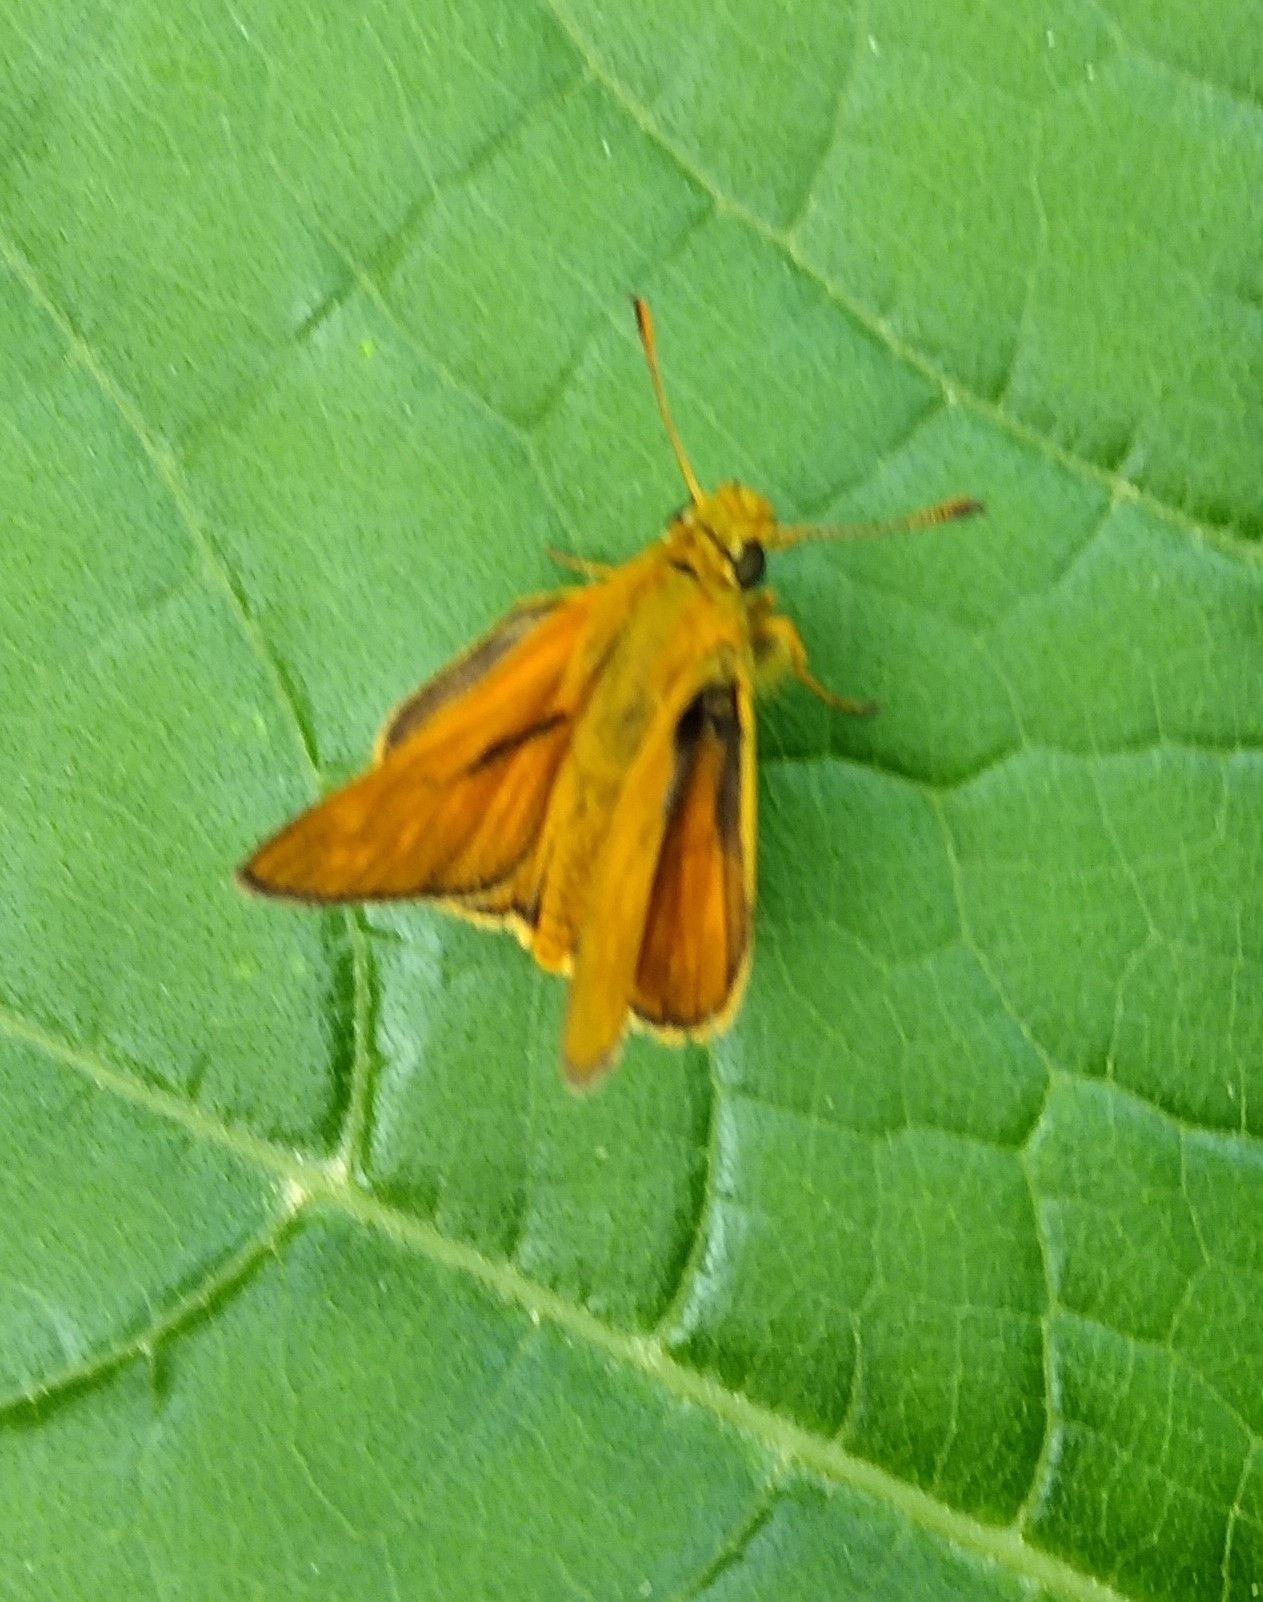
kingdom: Animalia
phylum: Arthropoda
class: Insecta
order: Lepidoptera
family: Hesperiidae
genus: Ochlodes
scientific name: Ochlodes venata
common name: Large skipper
